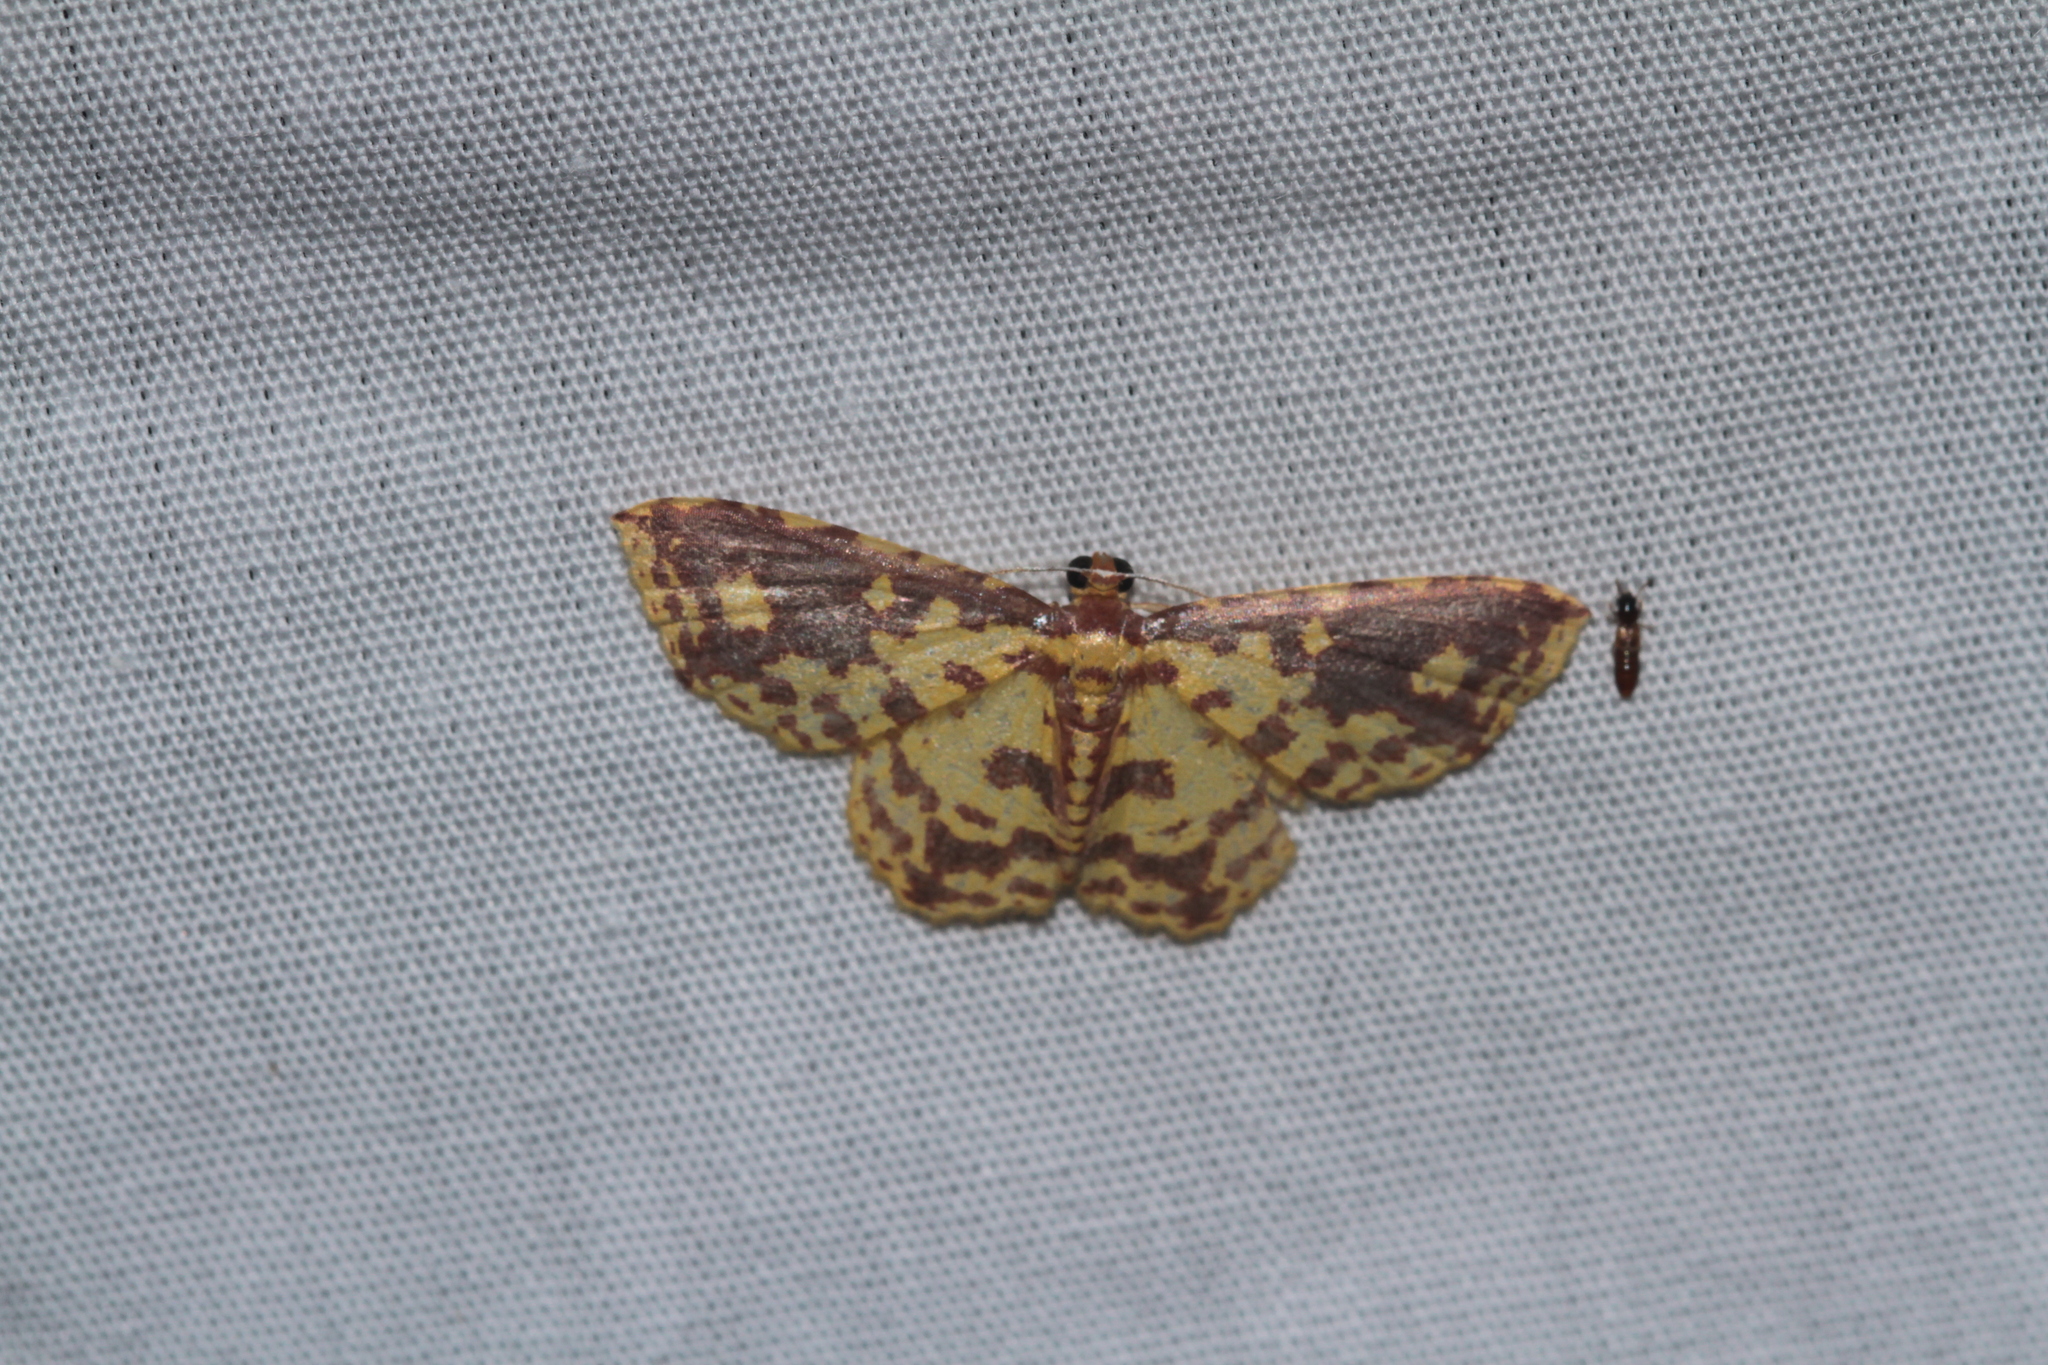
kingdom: Animalia
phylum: Arthropoda
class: Insecta
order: Lepidoptera
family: Geometridae
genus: Eois
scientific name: Eois russearia
